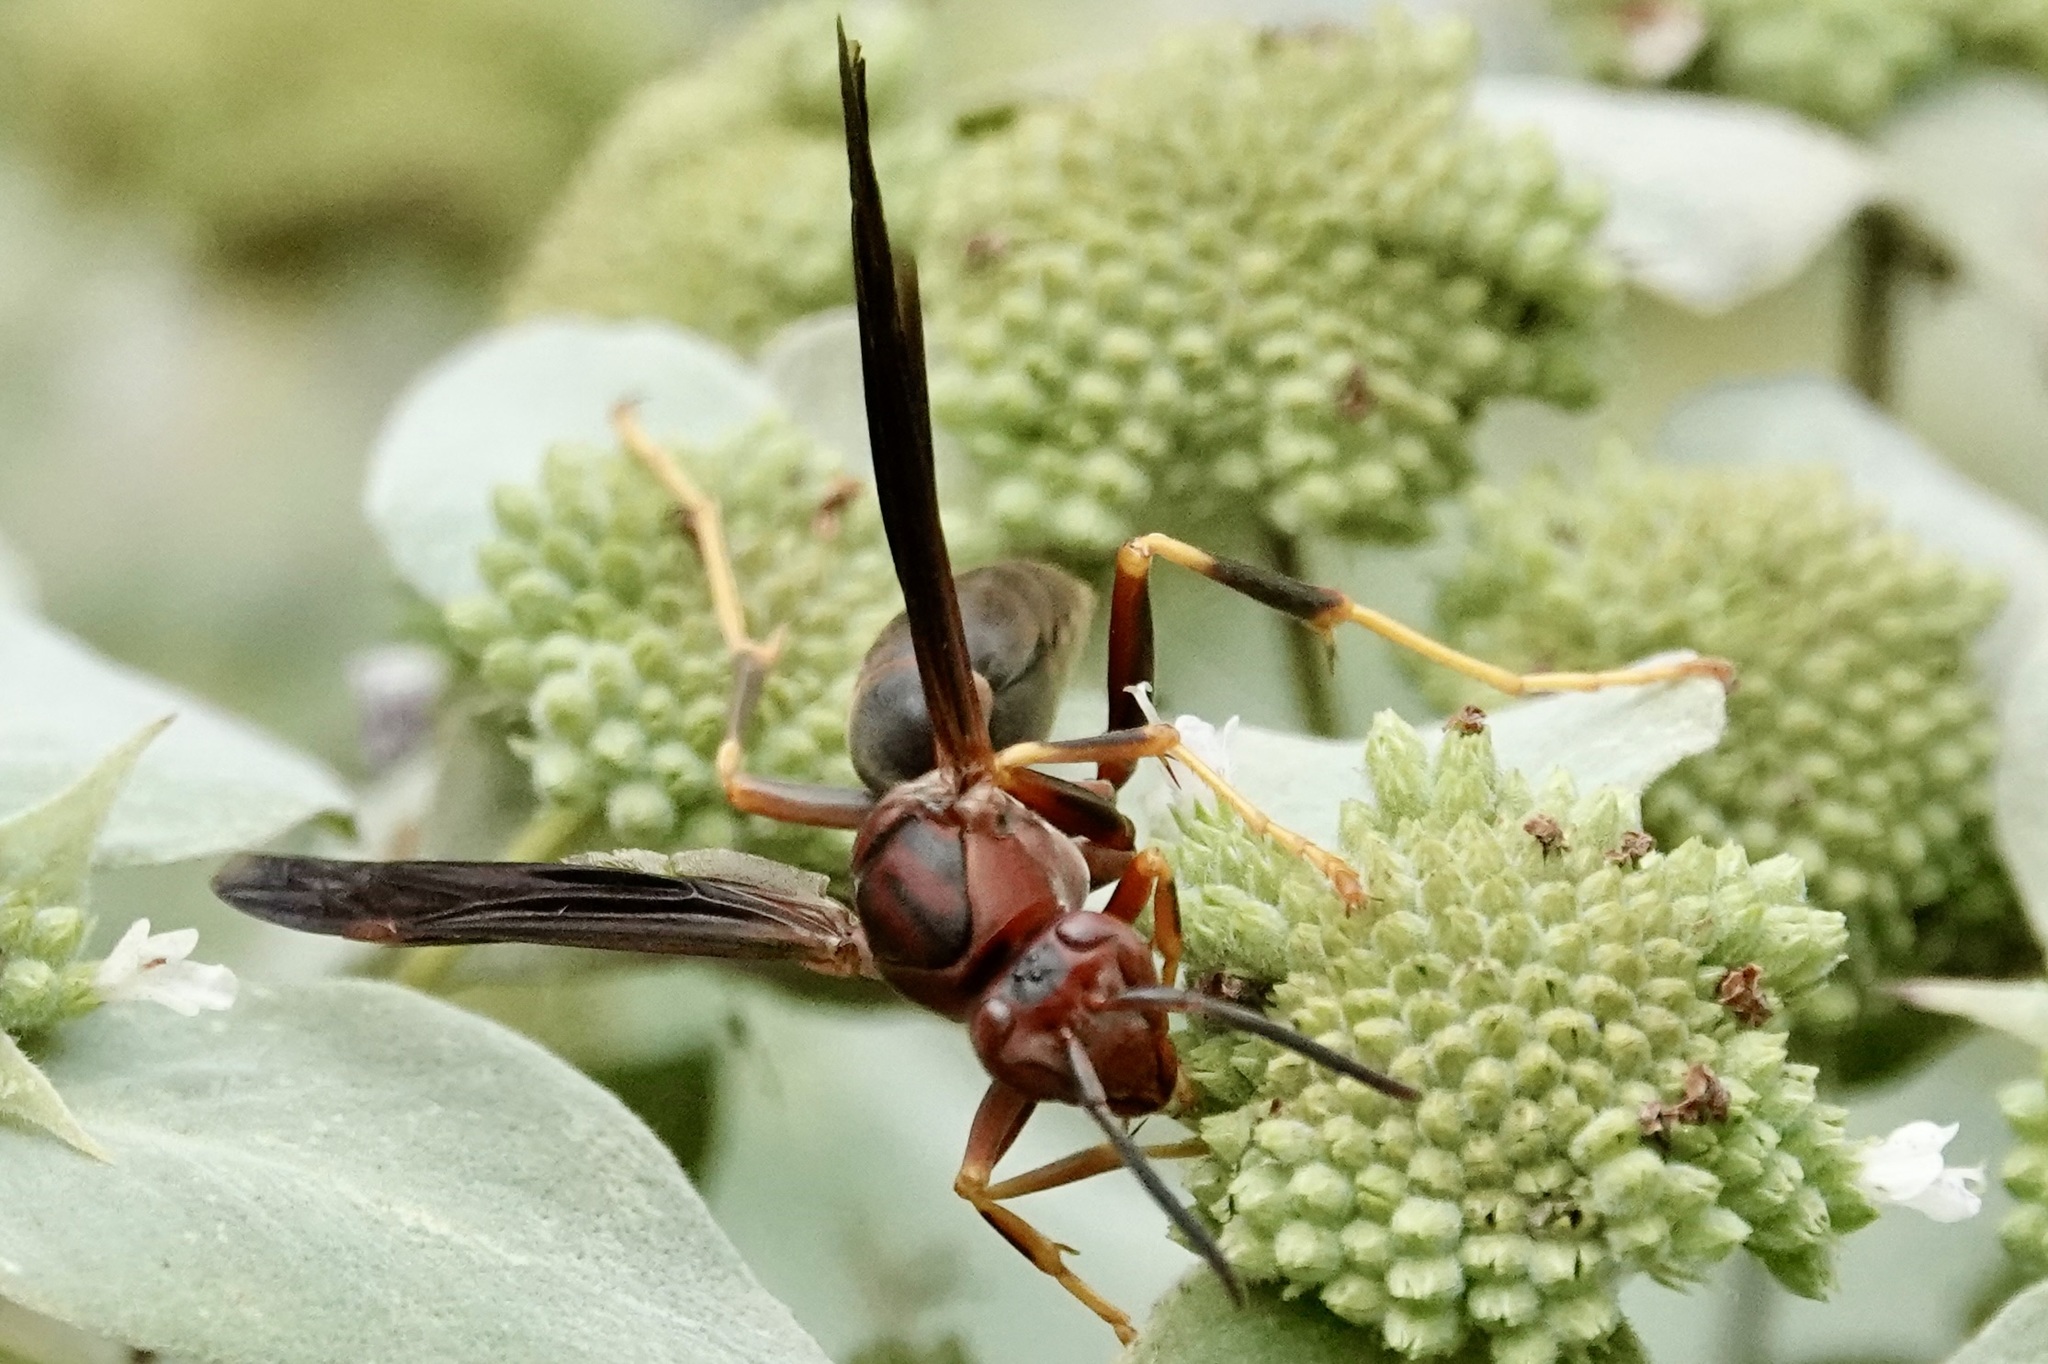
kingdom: Animalia
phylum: Arthropoda
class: Insecta
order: Hymenoptera
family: Eumenidae
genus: Polistes
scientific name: Polistes metricus
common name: Metric paper wasp
